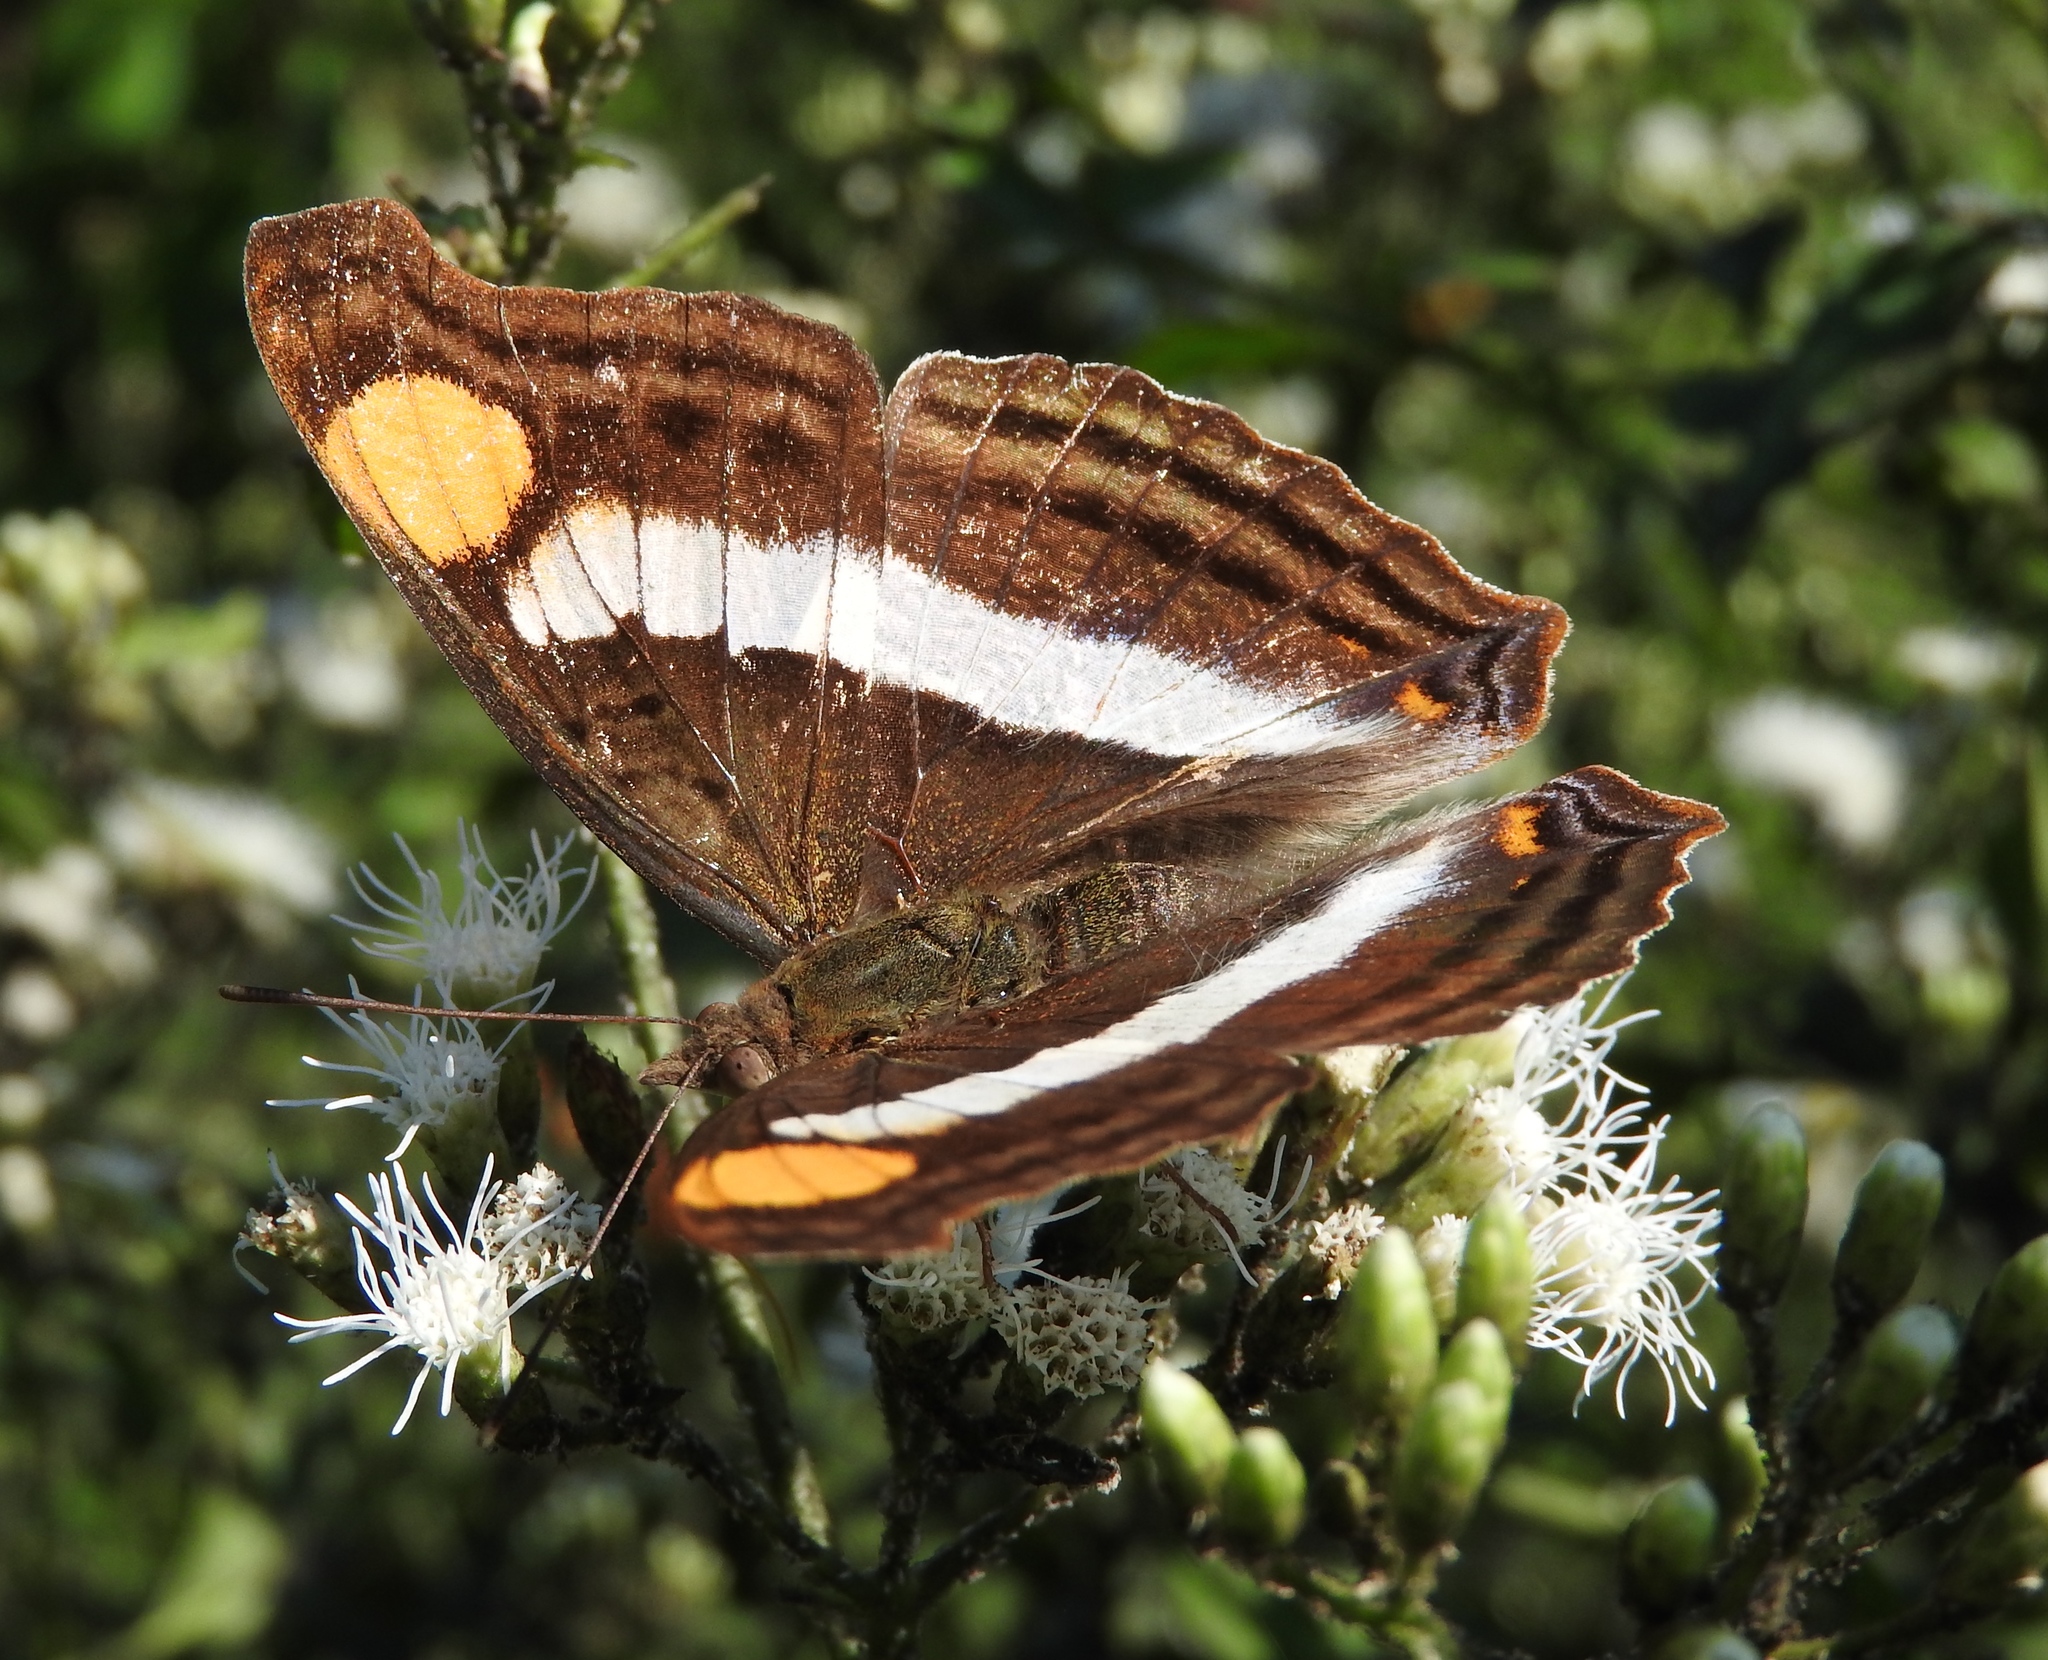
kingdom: Animalia
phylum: Arthropoda
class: Insecta
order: Lepidoptera
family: Nymphalidae
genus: Doxocopa
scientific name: Doxocopa laure
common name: Silver emperor
